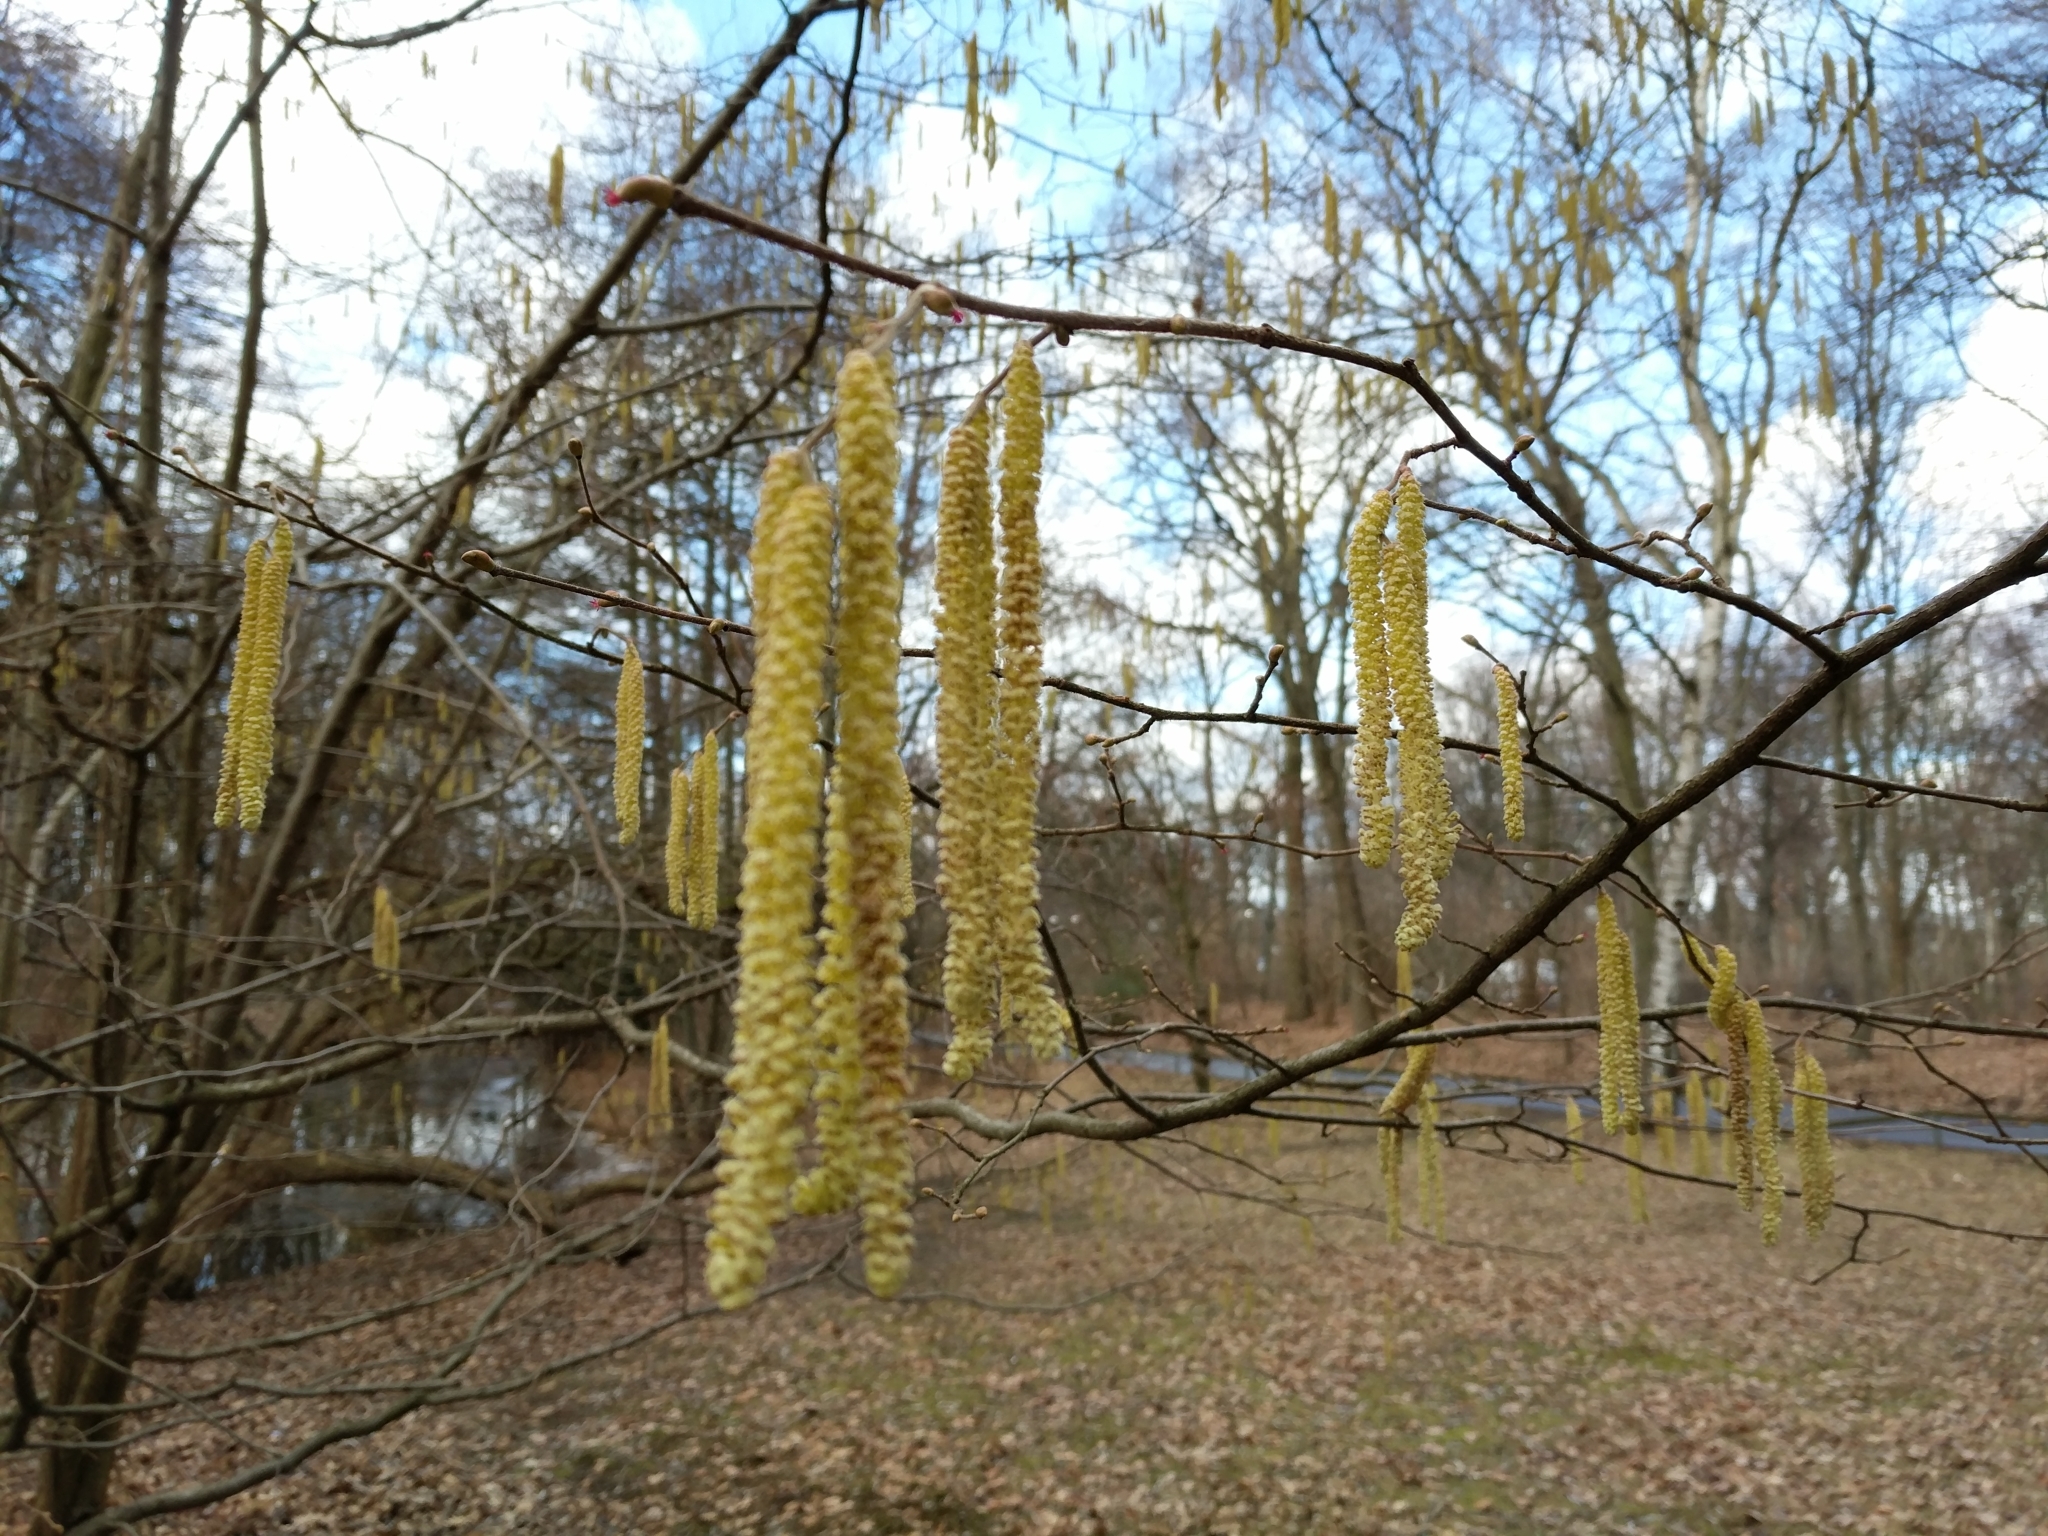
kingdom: Plantae
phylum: Tracheophyta
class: Magnoliopsida
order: Fagales
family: Betulaceae
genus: Corylus
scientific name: Corylus avellana
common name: European hazel
